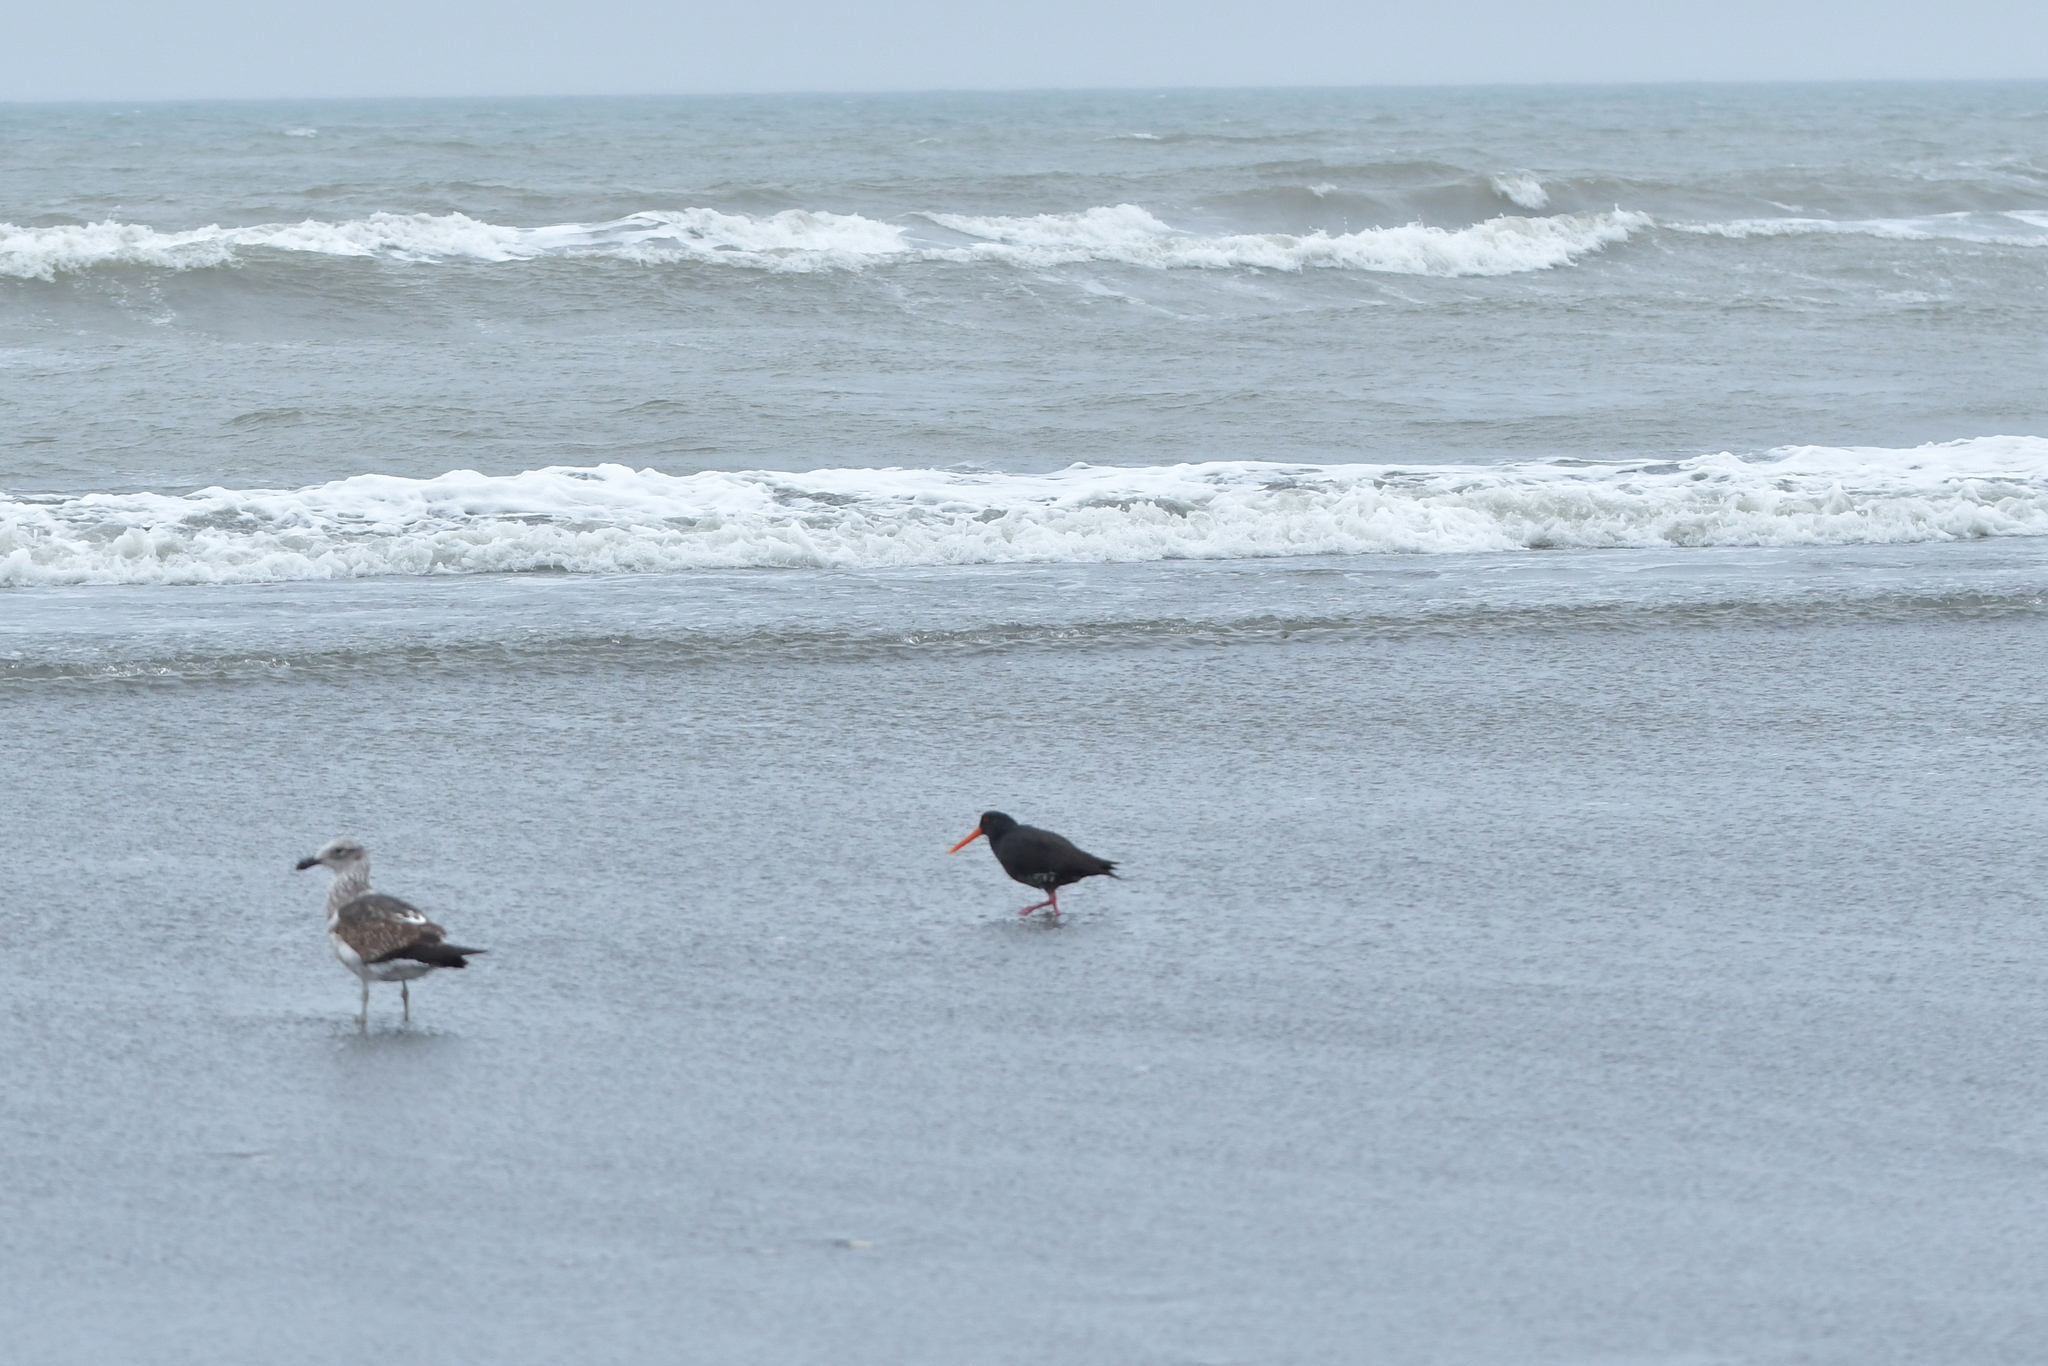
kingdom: Animalia
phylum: Chordata
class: Aves
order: Charadriiformes
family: Haematopodidae
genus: Haematopus
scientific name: Haematopus unicolor
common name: Variable oystercatcher
